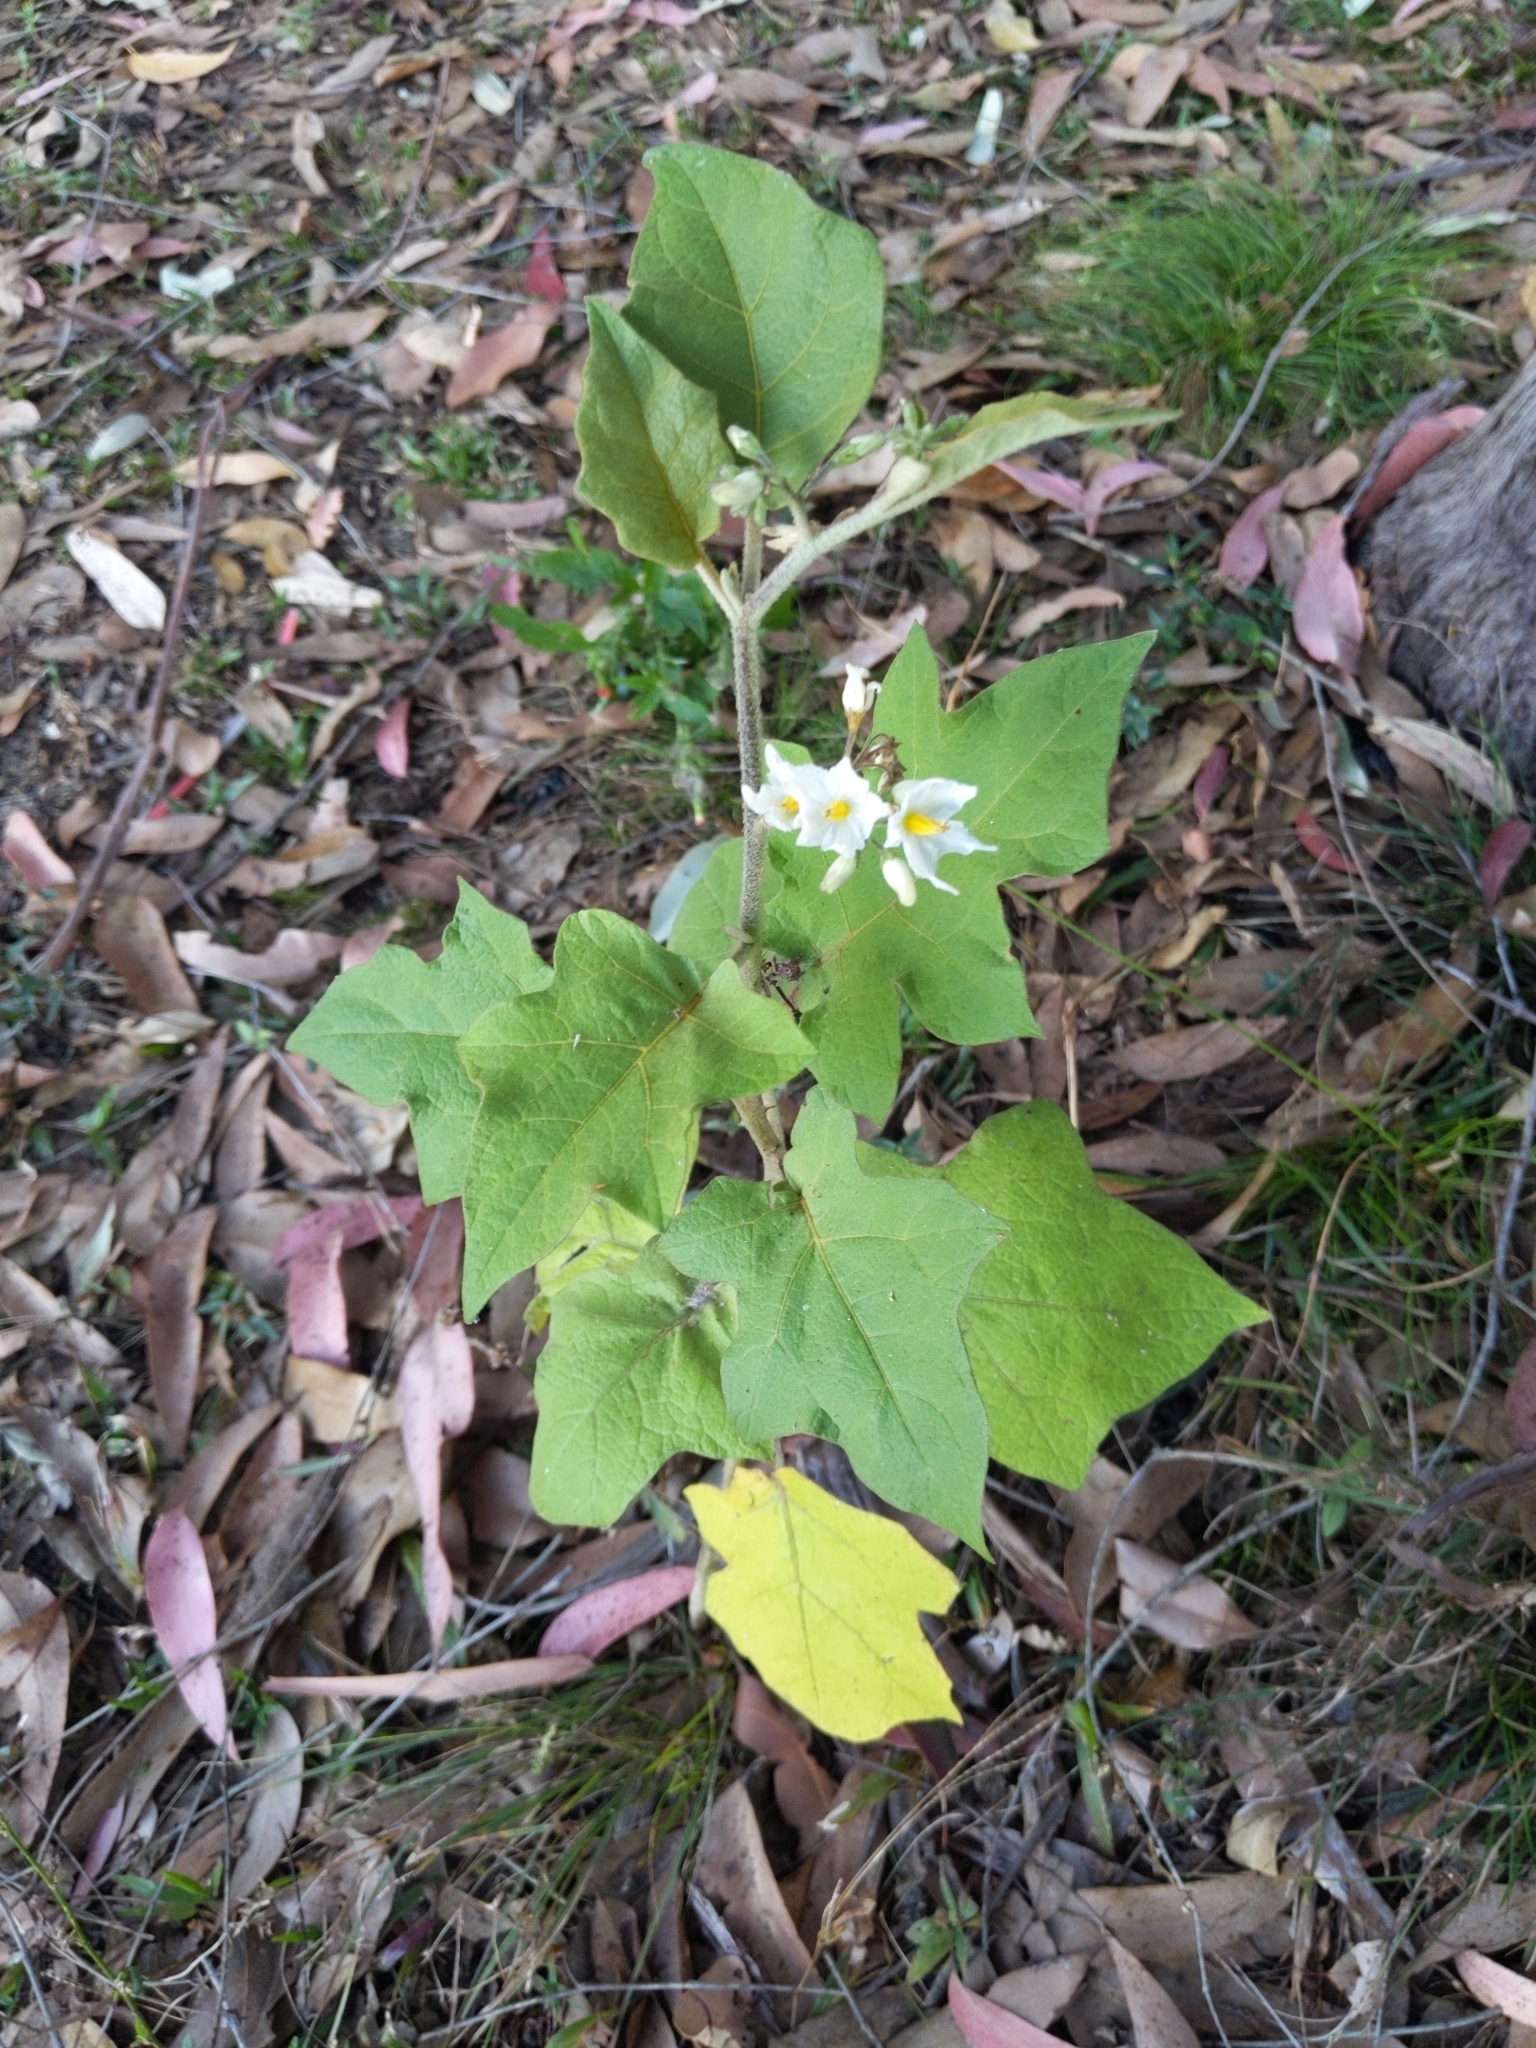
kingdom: Plantae
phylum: Tracheophyta
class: Magnoliopsida
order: Solanales
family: Solanaceae
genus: Solanum
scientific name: Solanum torvum
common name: Turkey berry
